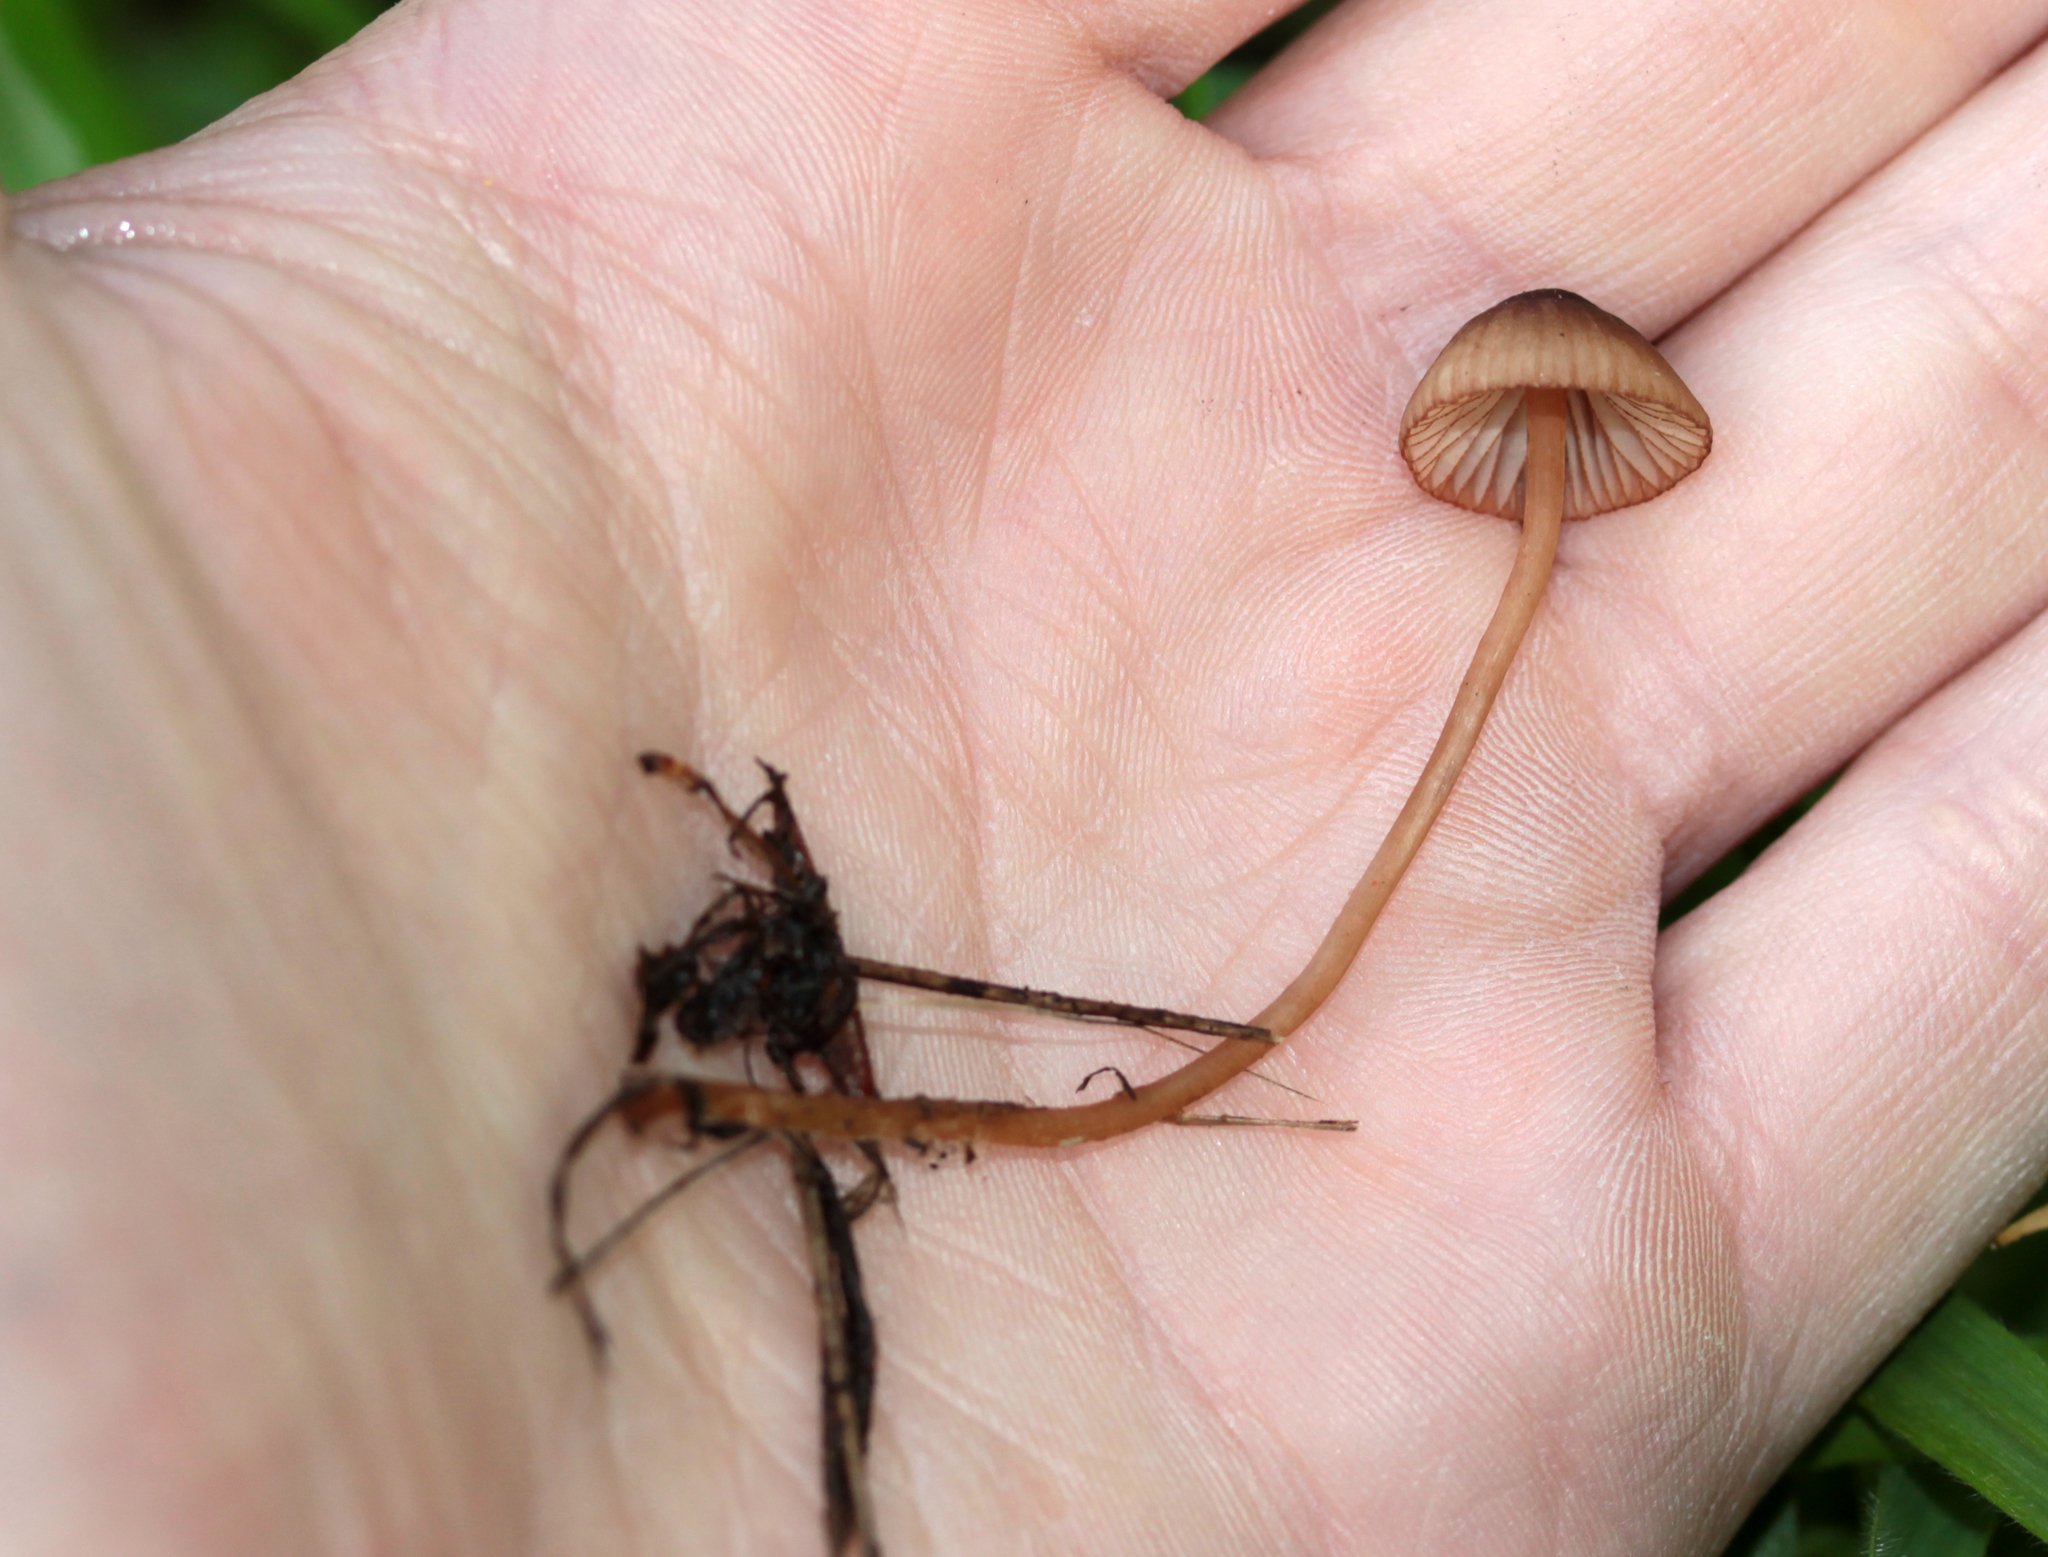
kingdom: Fungi
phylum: Basidiomycota
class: Agaricomycetes
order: Agaricales
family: Mycenaceae
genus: Mycena
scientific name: Mycena
